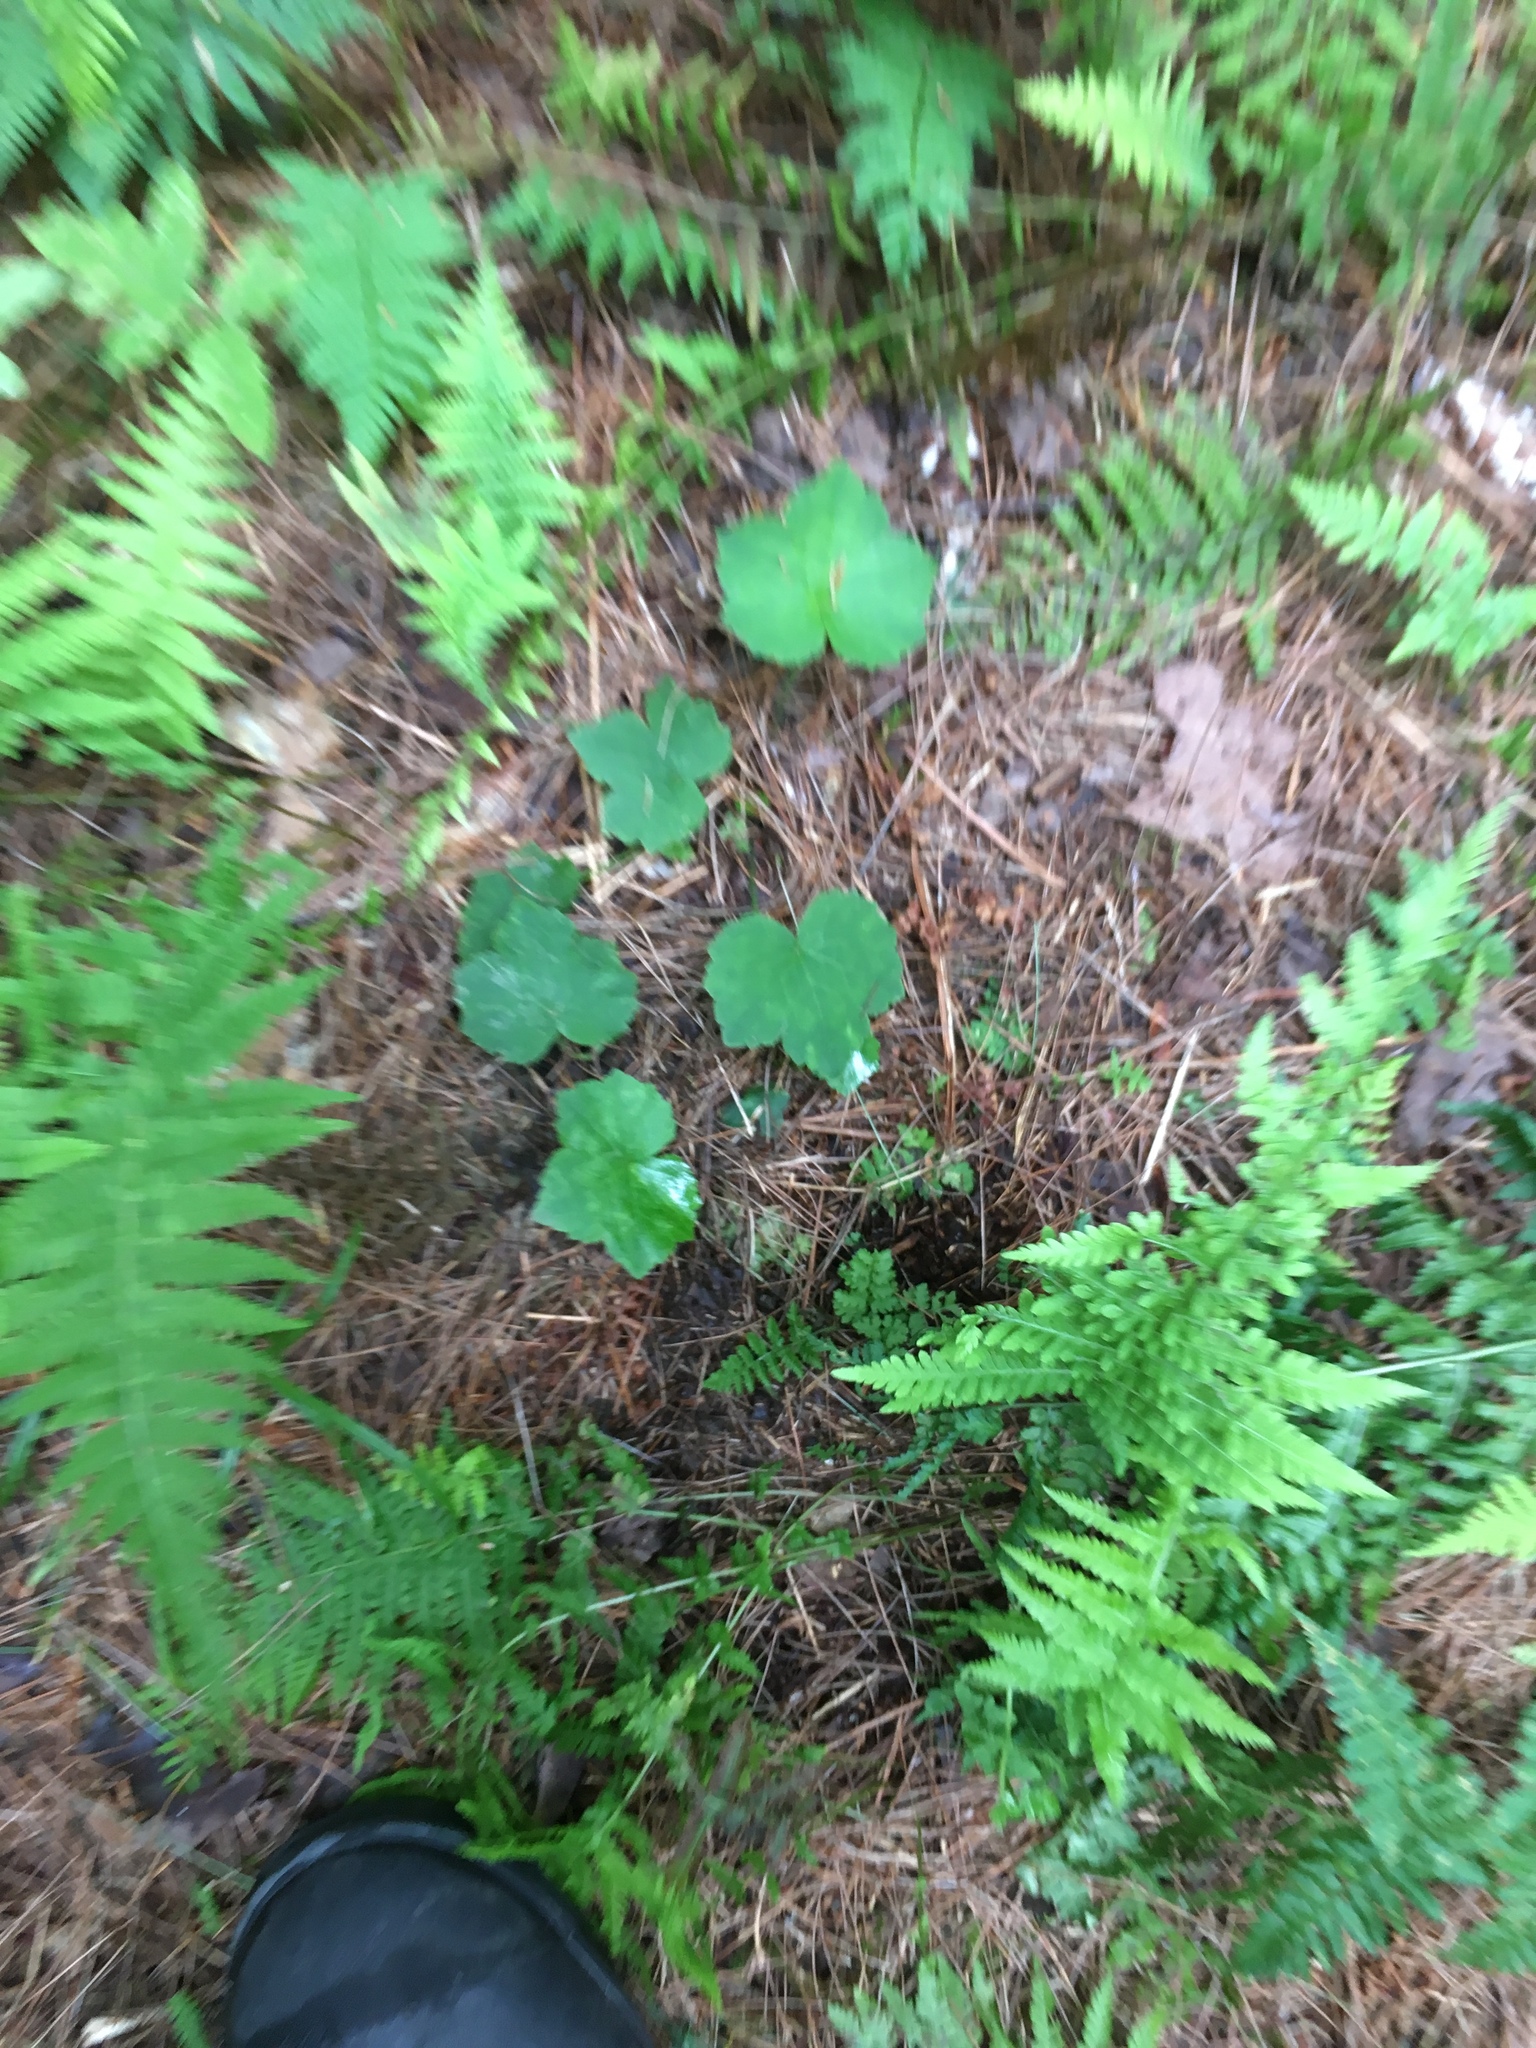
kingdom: Plantae
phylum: Tracheophyta
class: Magnoliopsida
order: Ranunculales
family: Ranunculaceae
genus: Ranunculus
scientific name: Ranunculus recurvatus
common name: Blisterwort
